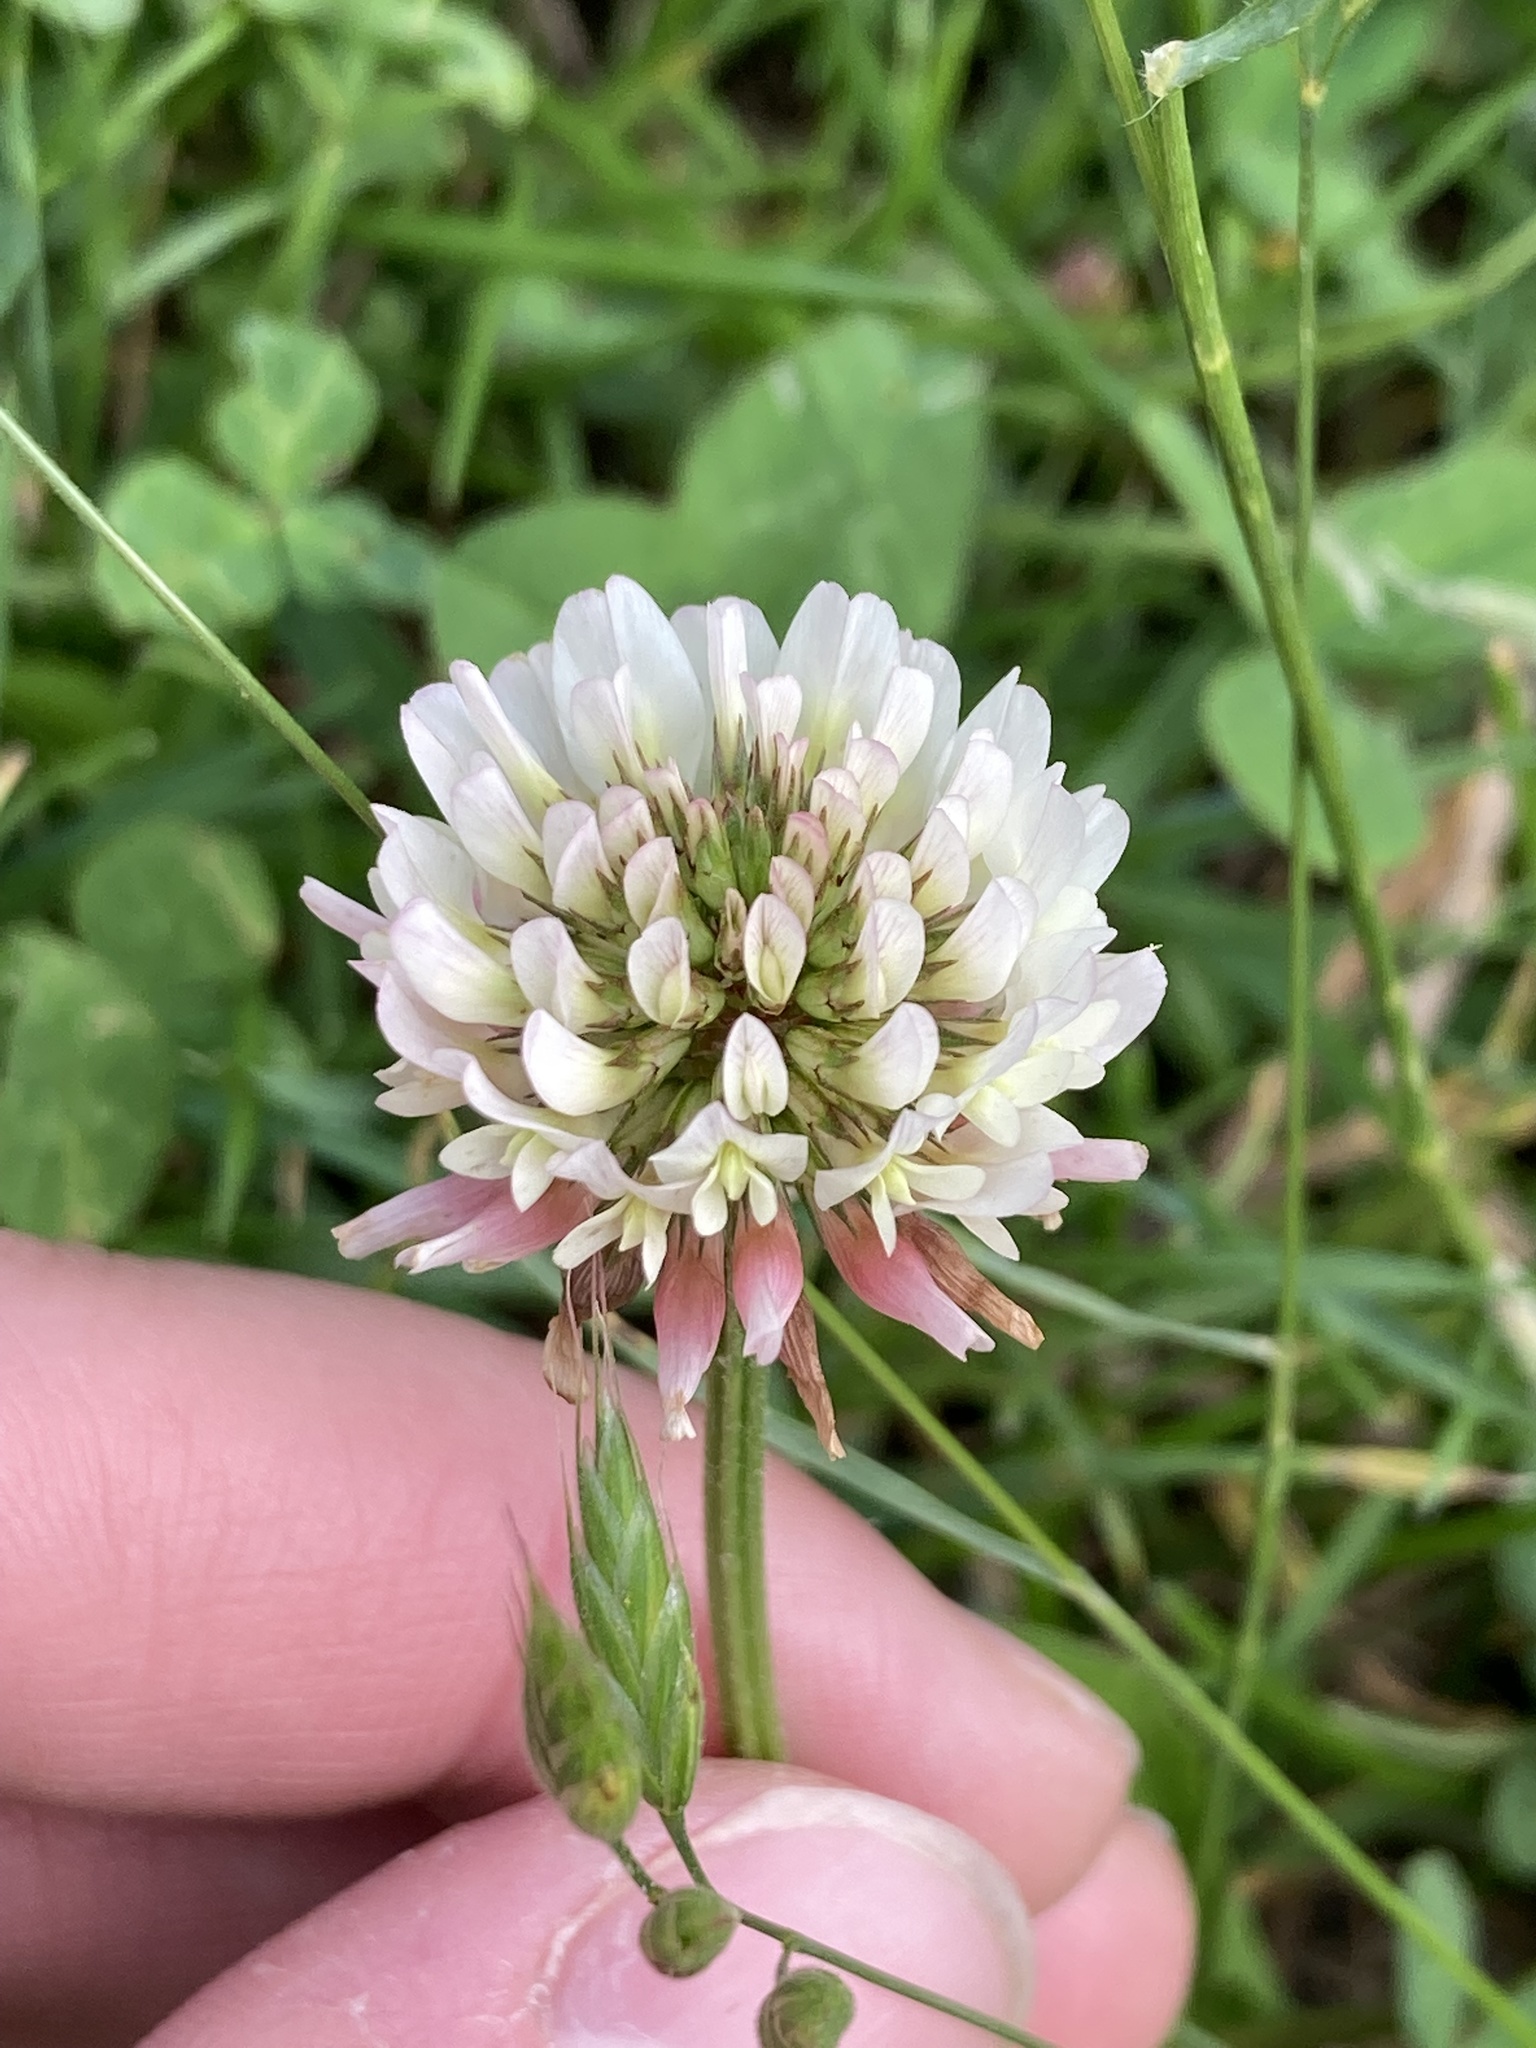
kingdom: Plantae
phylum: Tracheophyta
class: Magnoliopsida
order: Fabales
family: Fabaceae
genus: Trifolium
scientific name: Trifolium repens
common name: White clover
